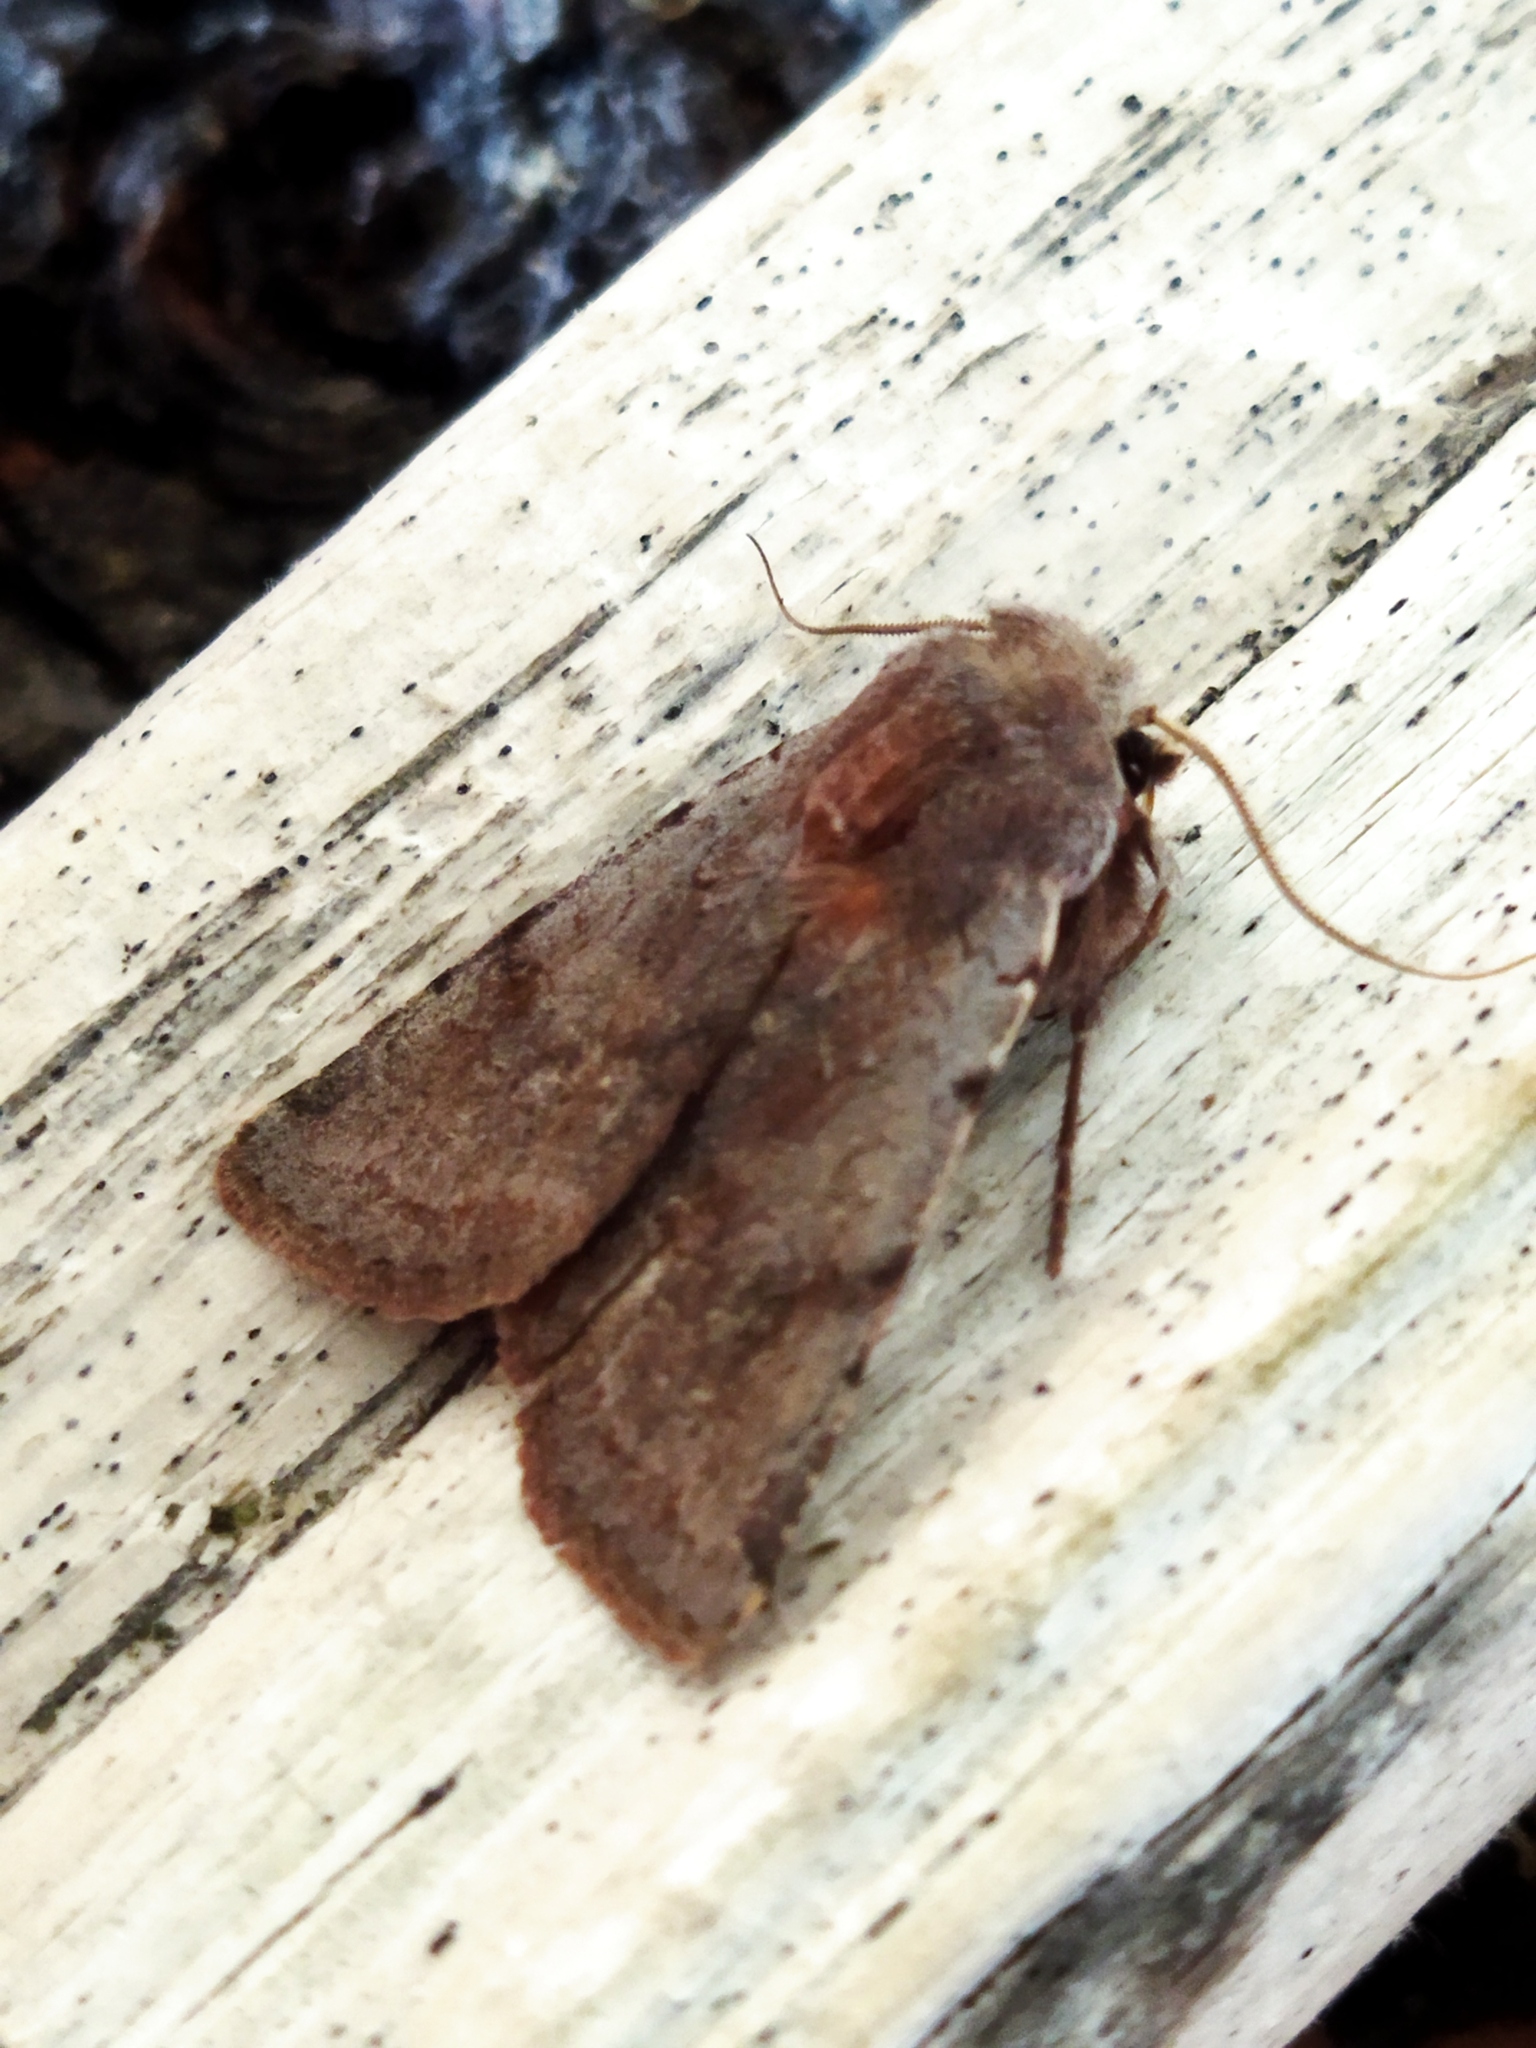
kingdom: Animalia
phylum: Arthropoda
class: Insecta
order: Lepidoptera
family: Noctuidae
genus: Cerastis
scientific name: Cerastis rubricosa
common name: Red chestnut
